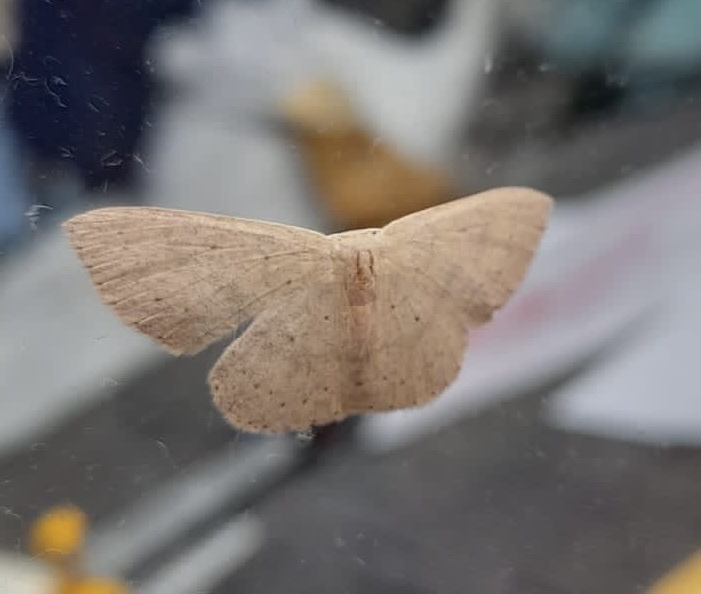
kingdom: Animalia
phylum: Arthropoda
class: Insecta
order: Lepidoptera
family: Geometridae
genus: Cyclophora
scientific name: Cyclophora obstataria
